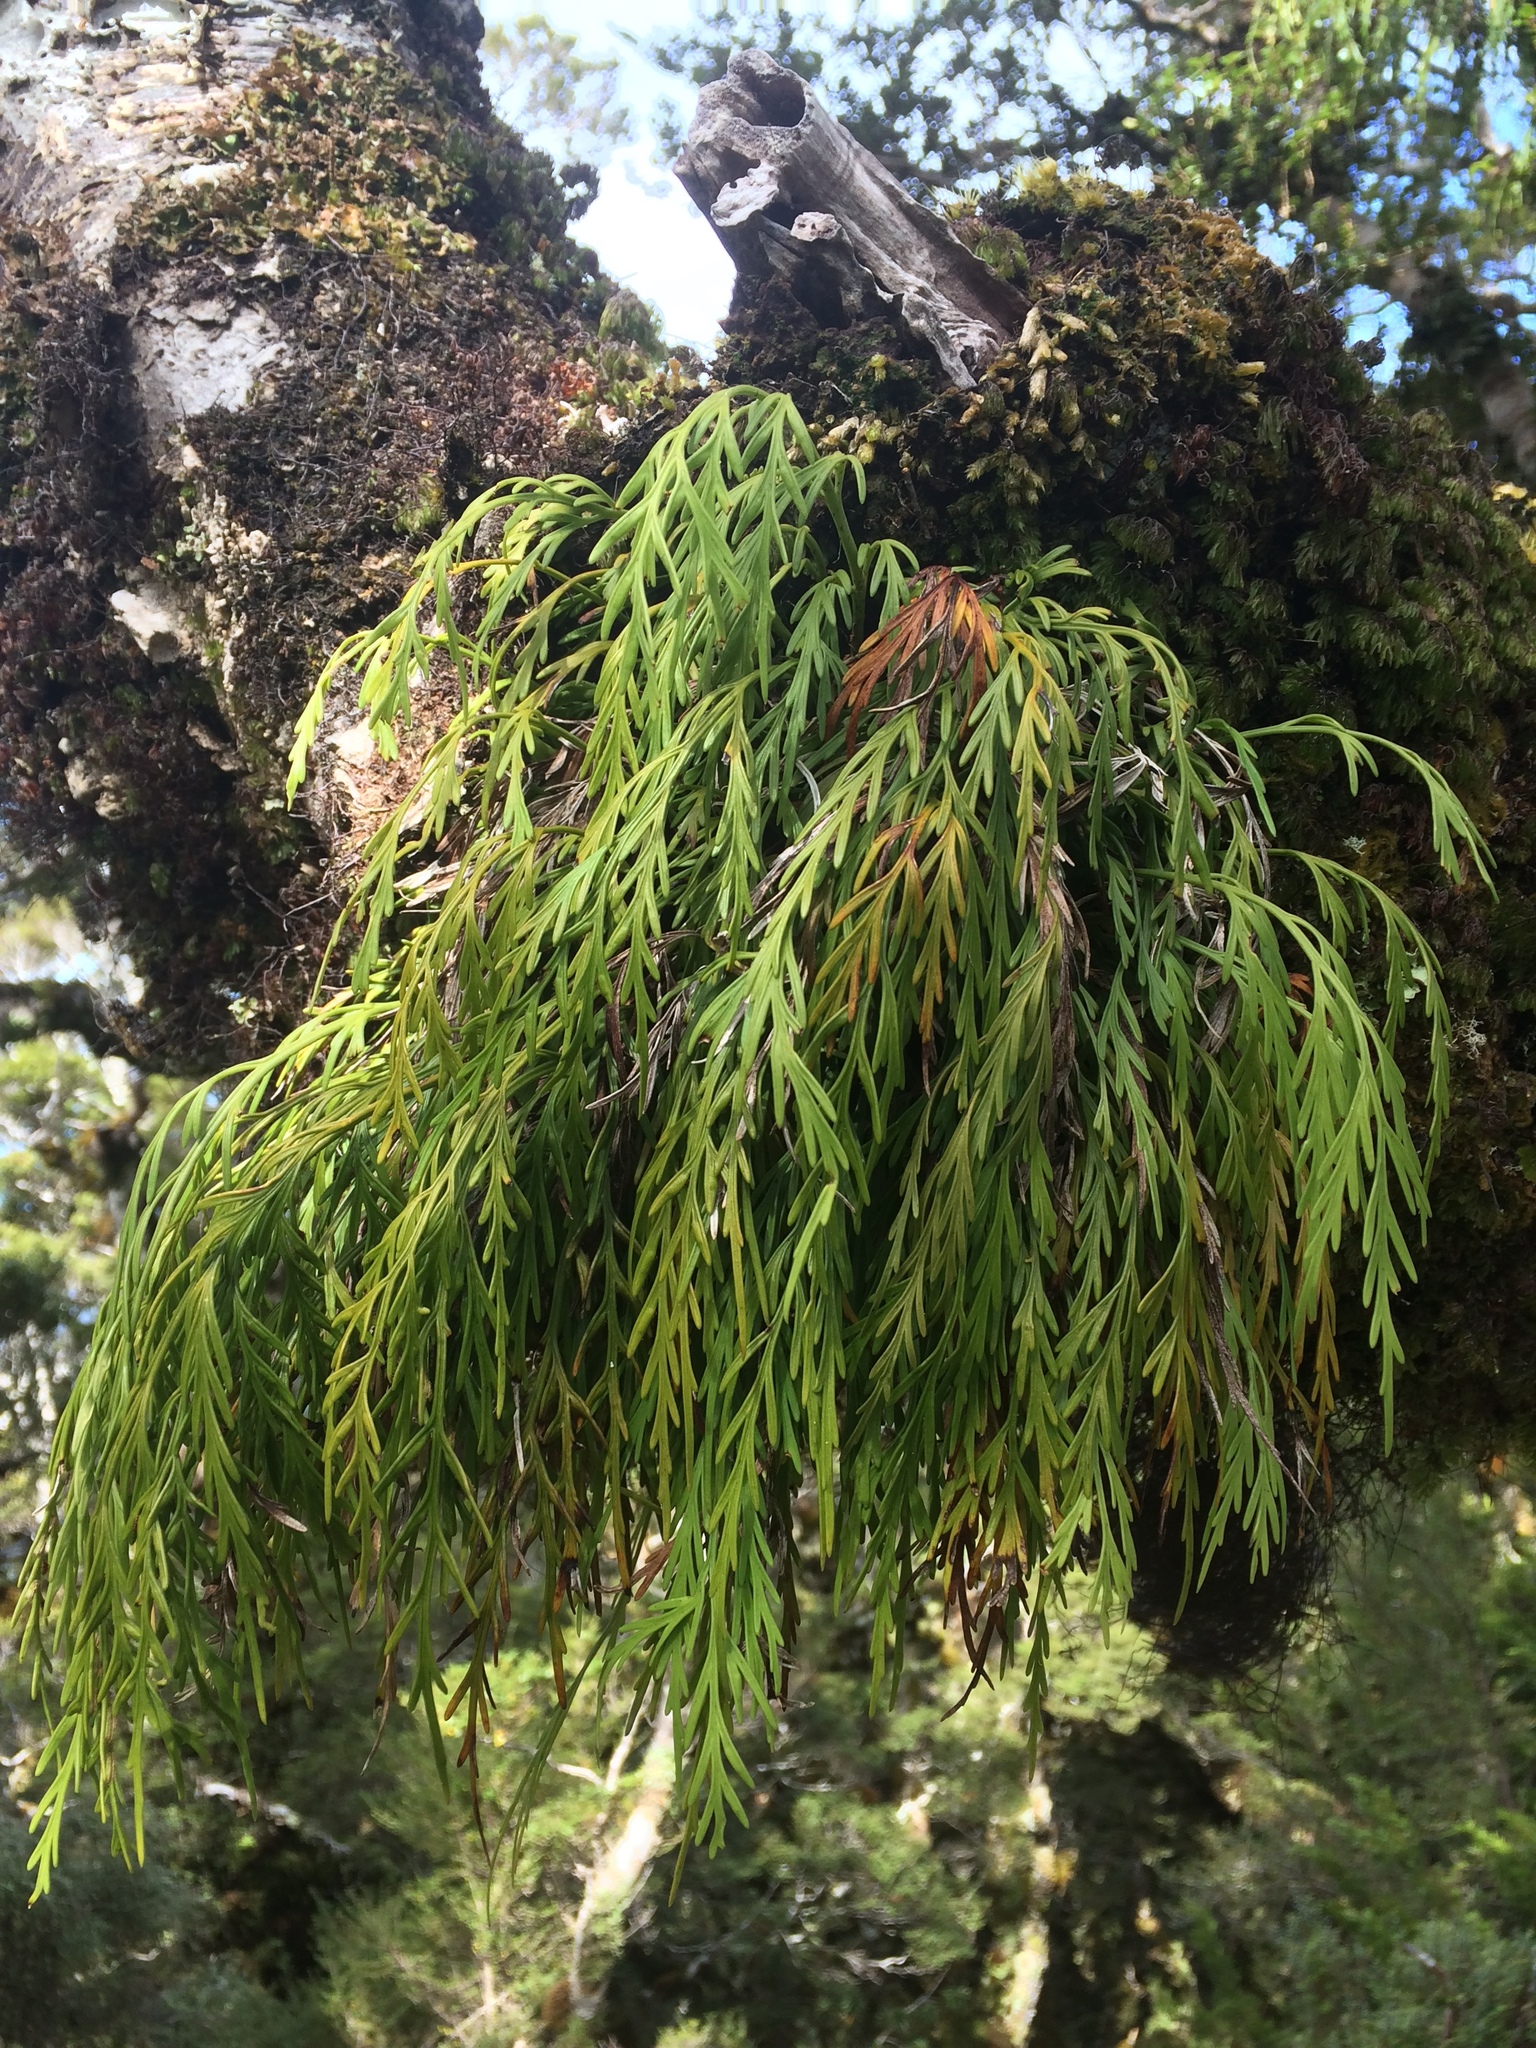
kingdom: Plantae
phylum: Tracheophyta
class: Polypodiopsida
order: Polypodiales
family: Aspleniaceae
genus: Asplenium
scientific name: Asplenium flaccidum
